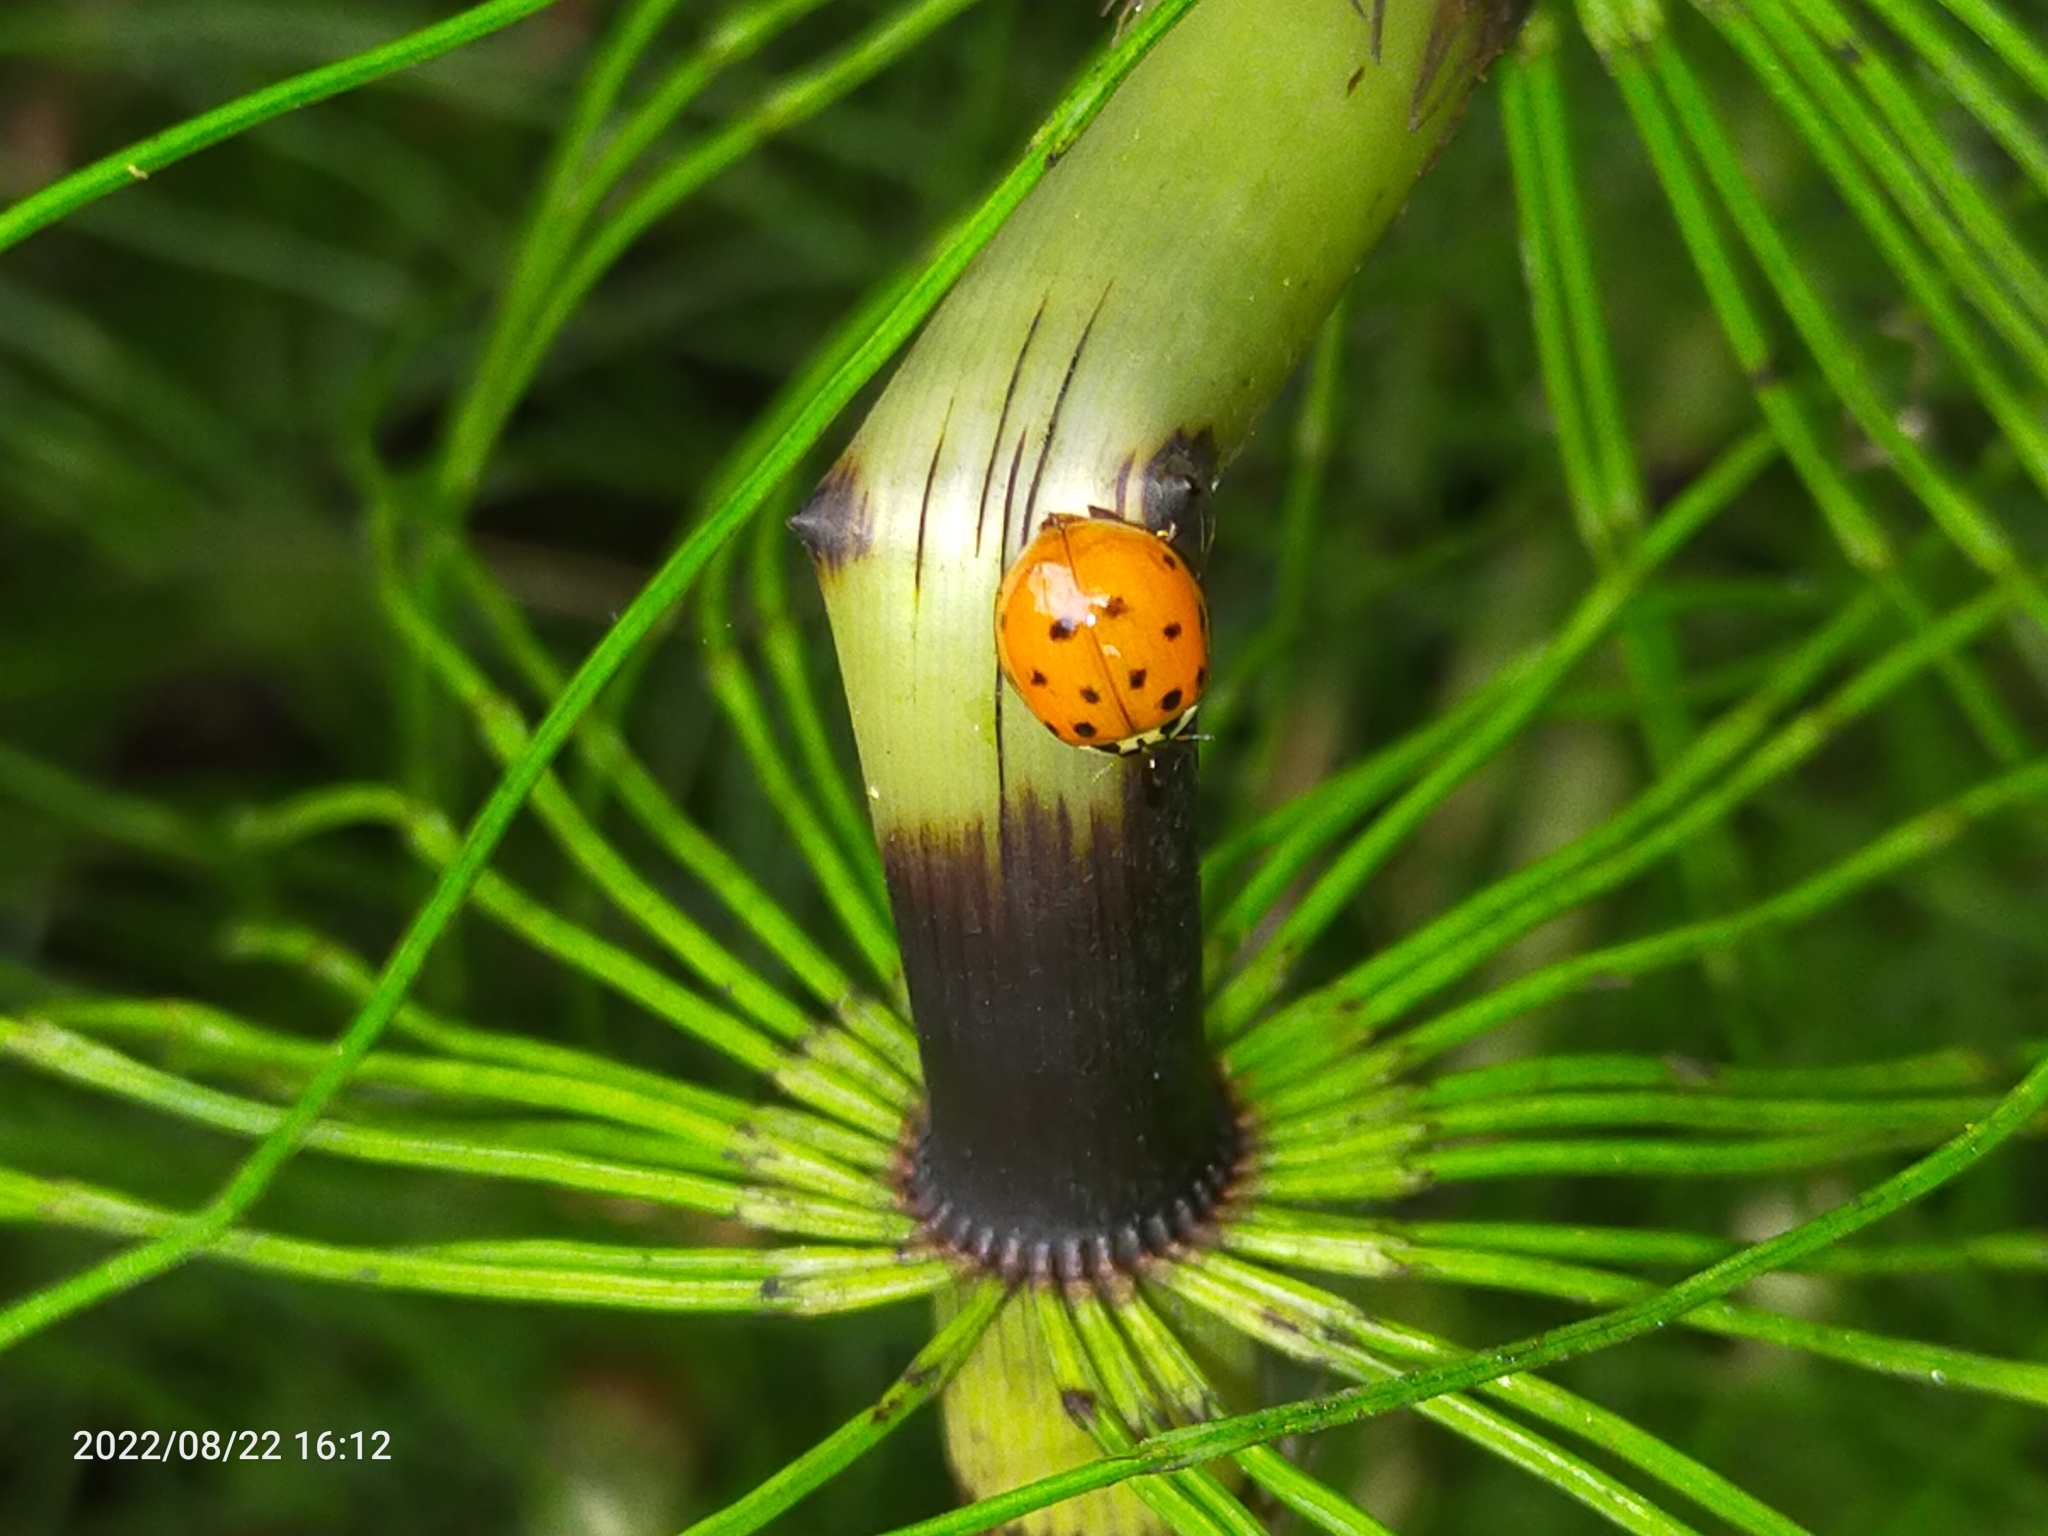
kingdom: Animalia
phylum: Arthropoda
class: Insecta
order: Coleoptera
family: Coccinellidae
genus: Harmonia
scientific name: Harmonia axyridis
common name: Harlequin ladybird
